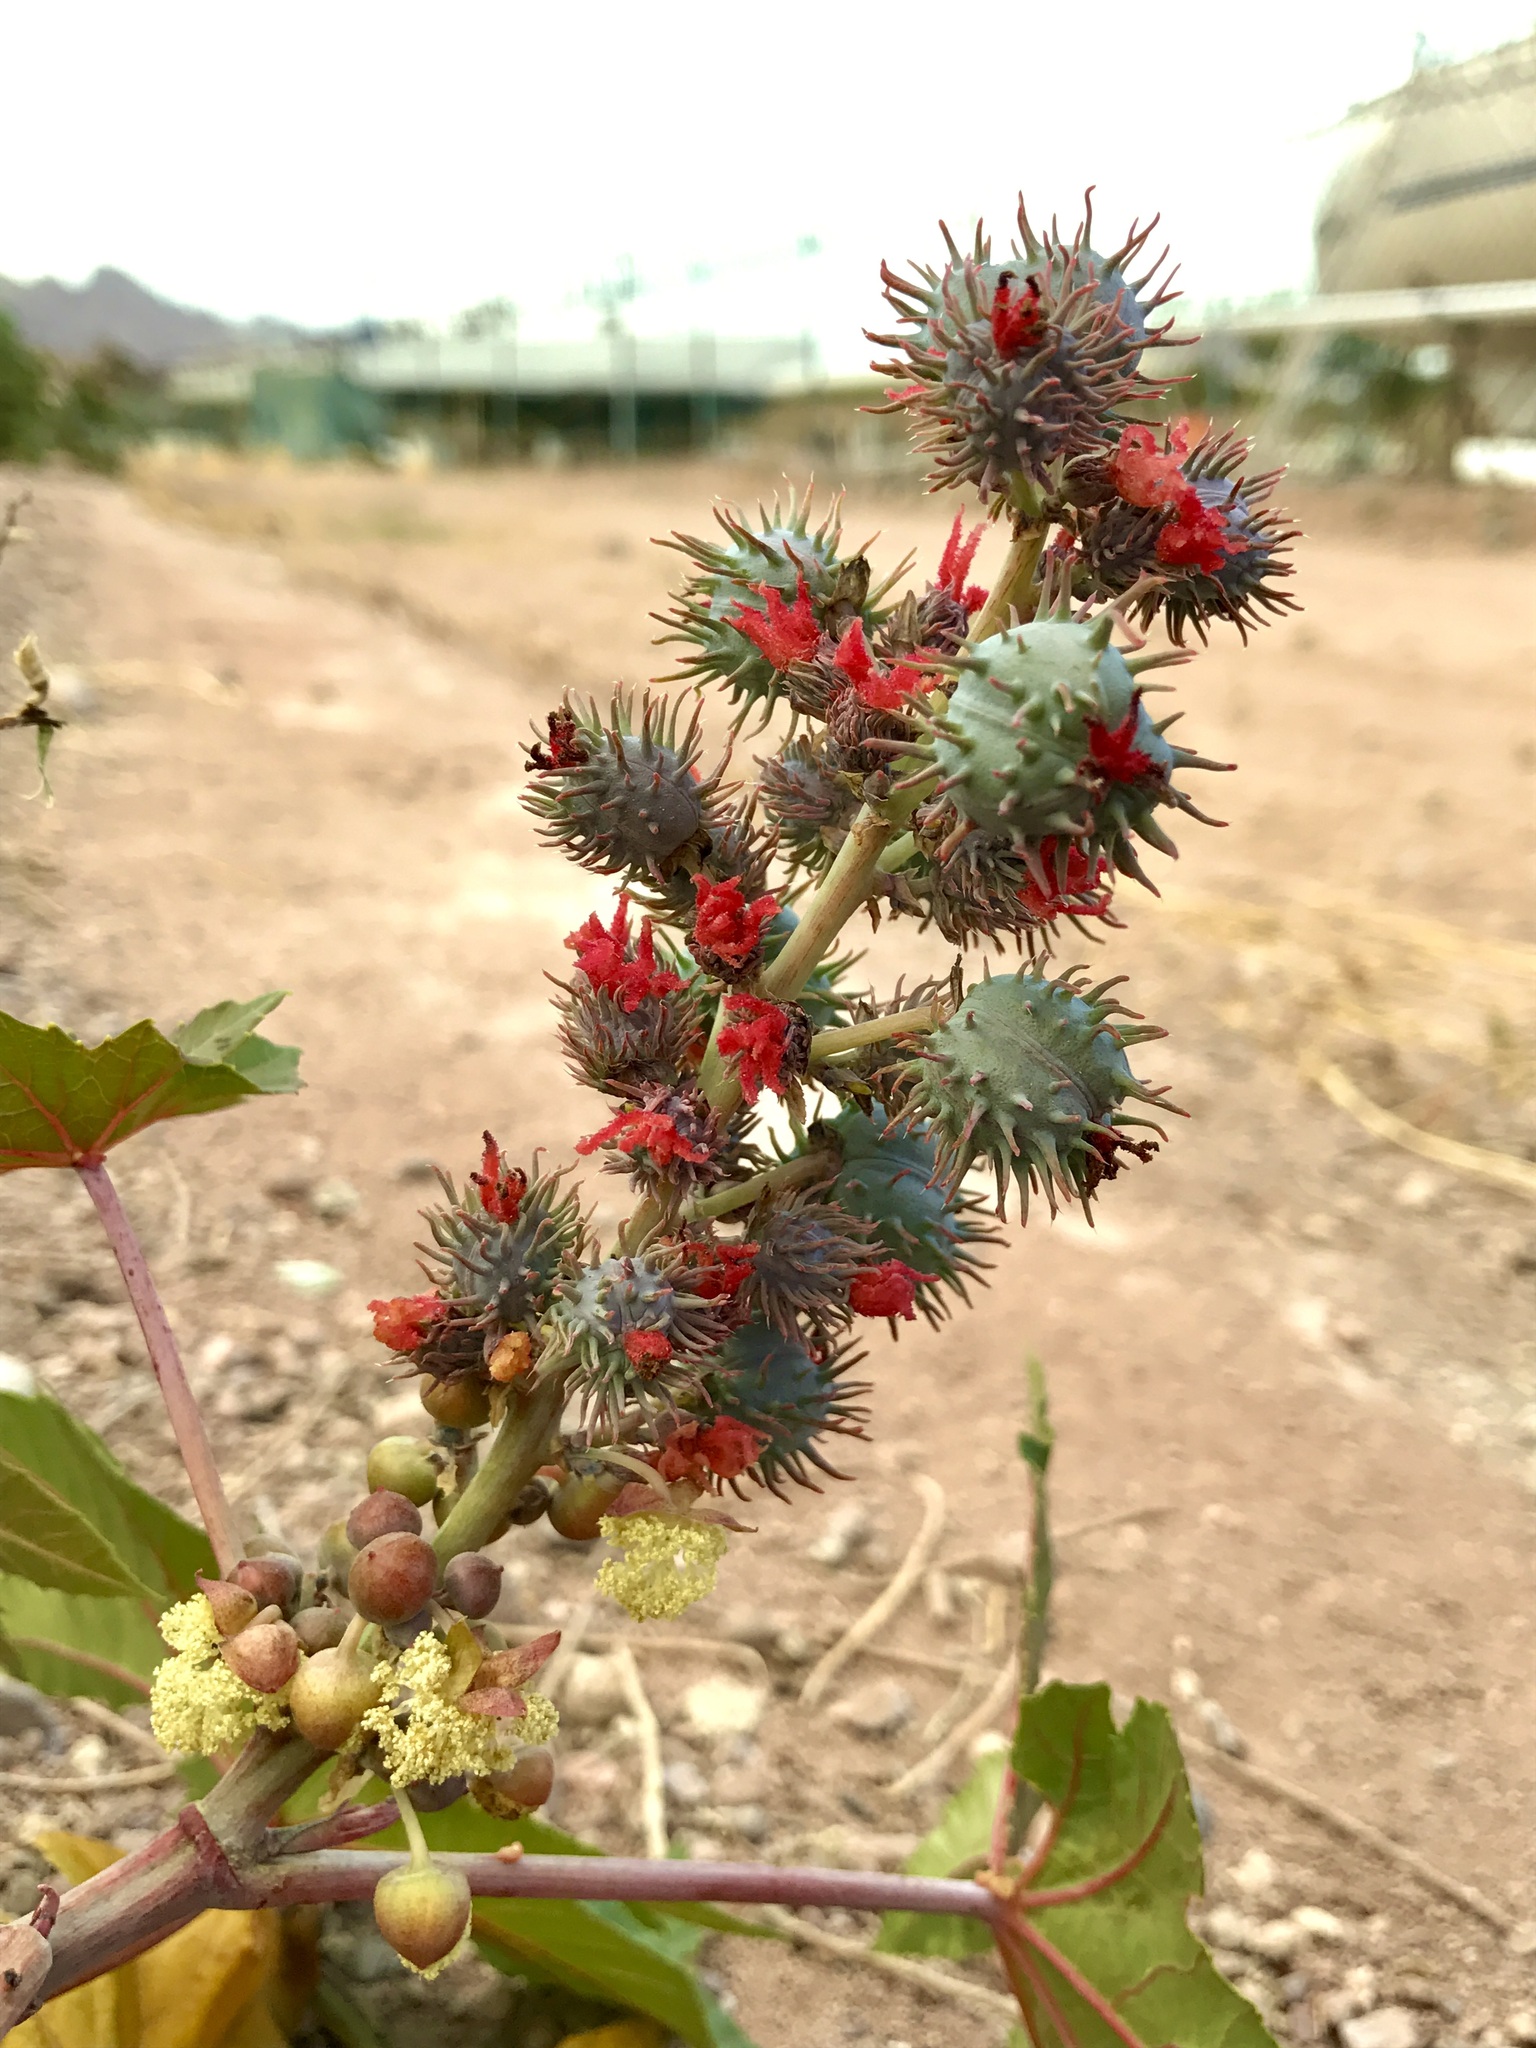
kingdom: Plantae
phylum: Tracheophyta
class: Magnoliopsida
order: Malpighiales
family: Euphorbiaceae
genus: Ricinus
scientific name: Ricinus communis
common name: Castor-oil-plant
